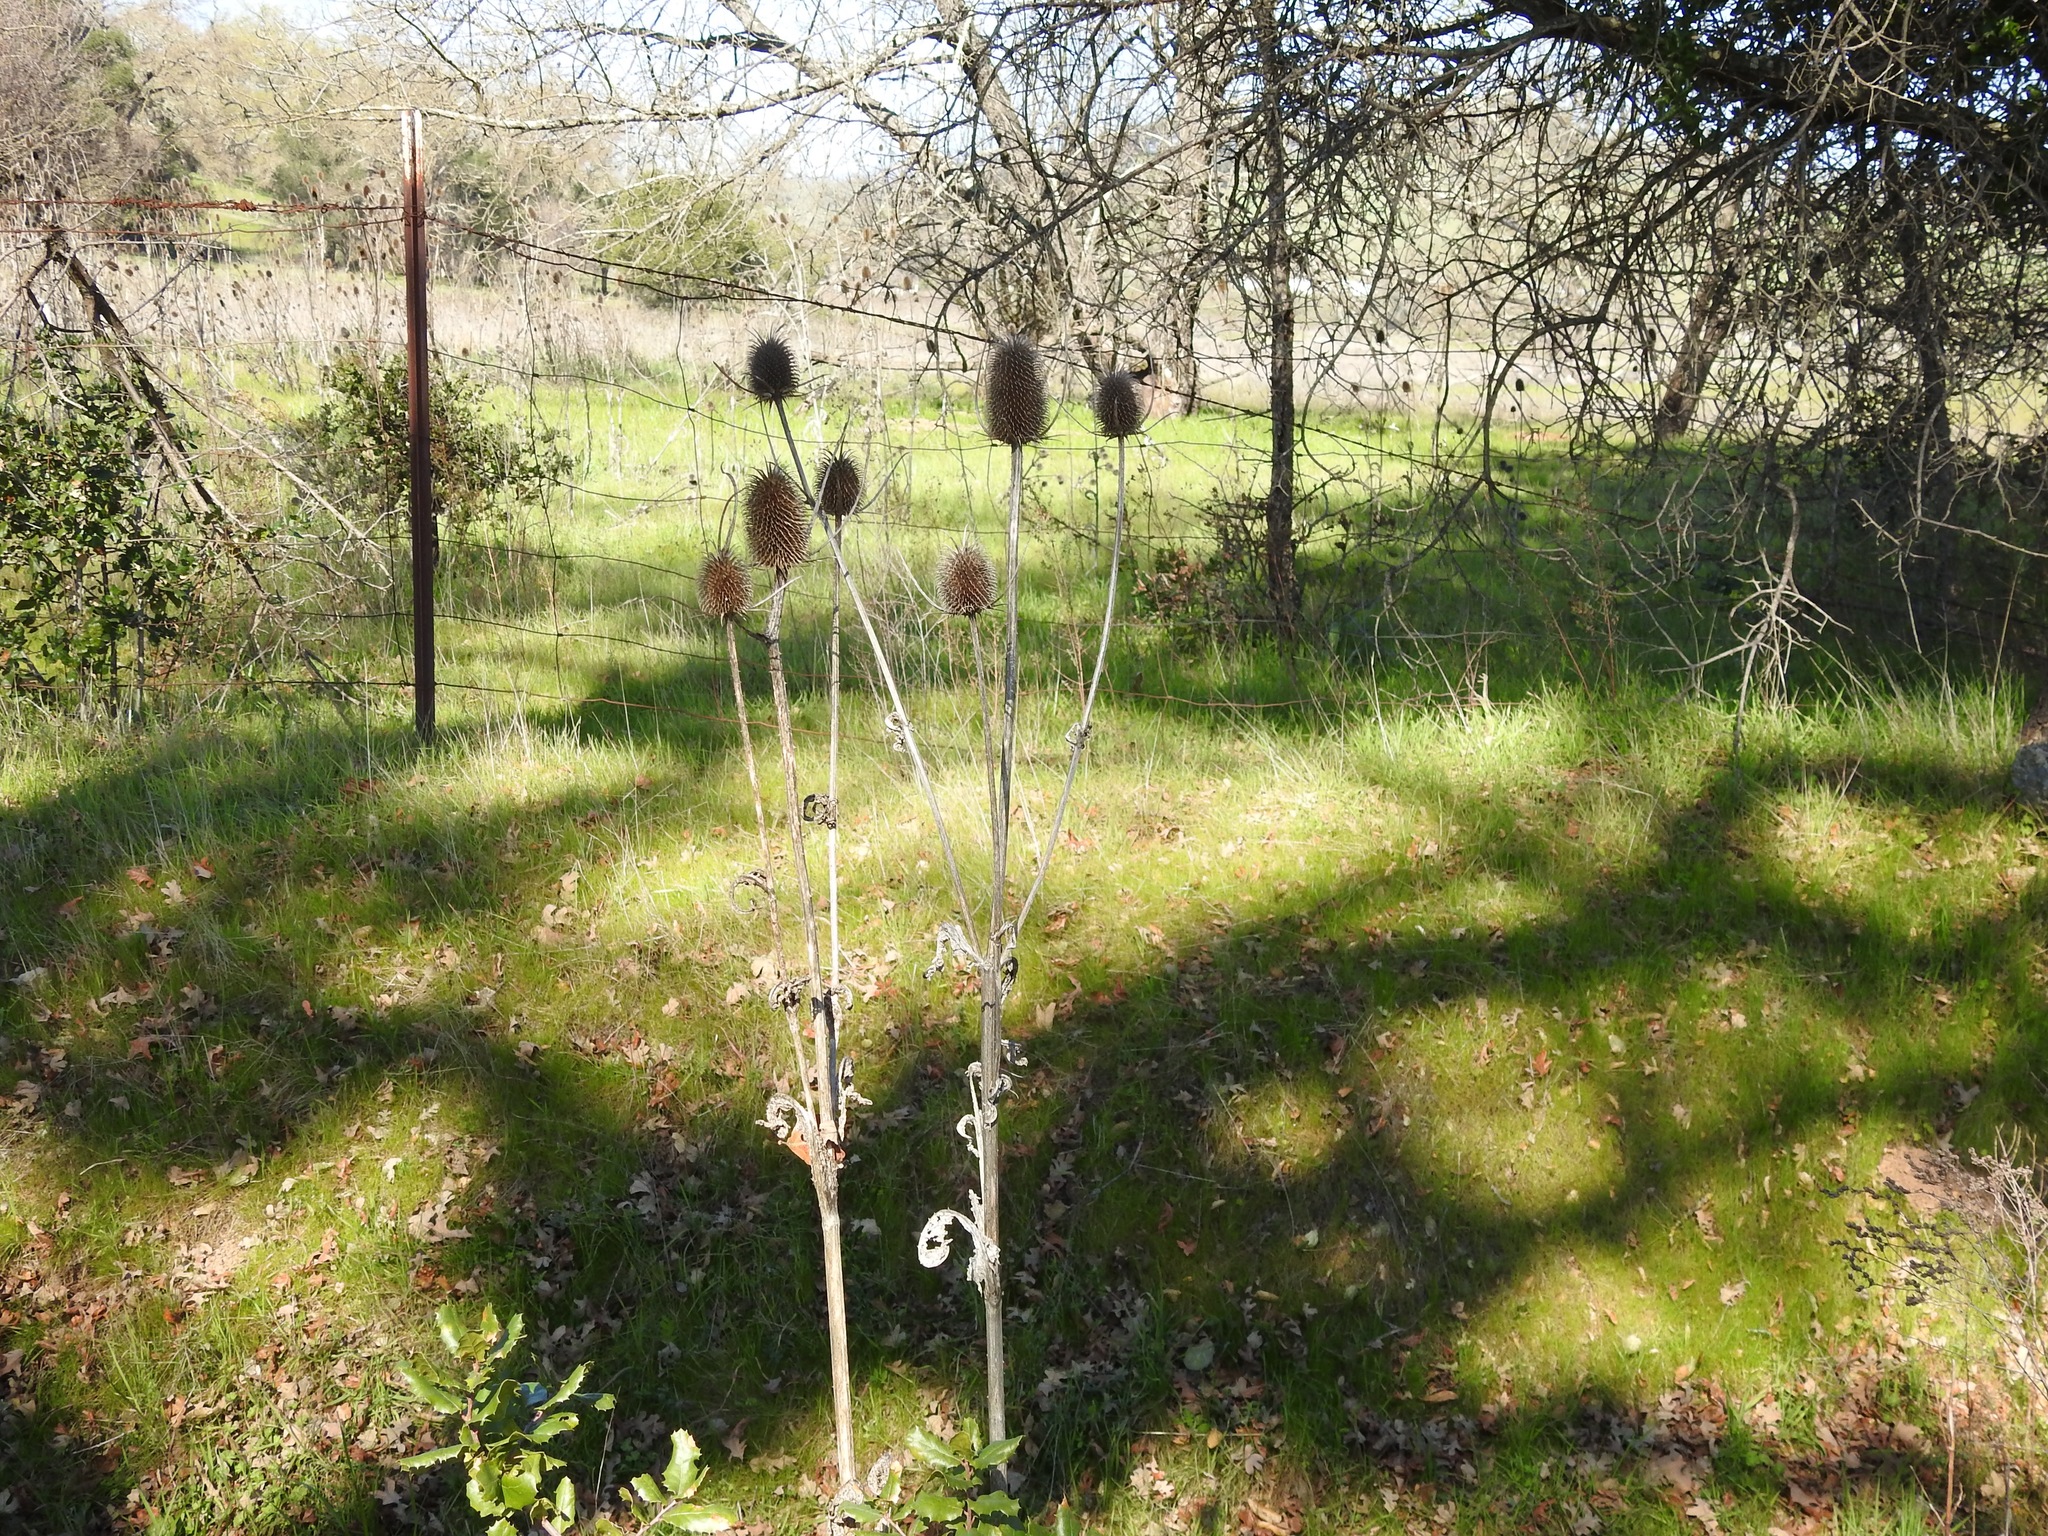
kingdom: Plantae
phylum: Tracheophyta
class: Magnoliopsida
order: Dipsacales
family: Caprifoliaceae
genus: Dipsacus
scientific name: Dipsacus sativus
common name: Fuller's teasel
